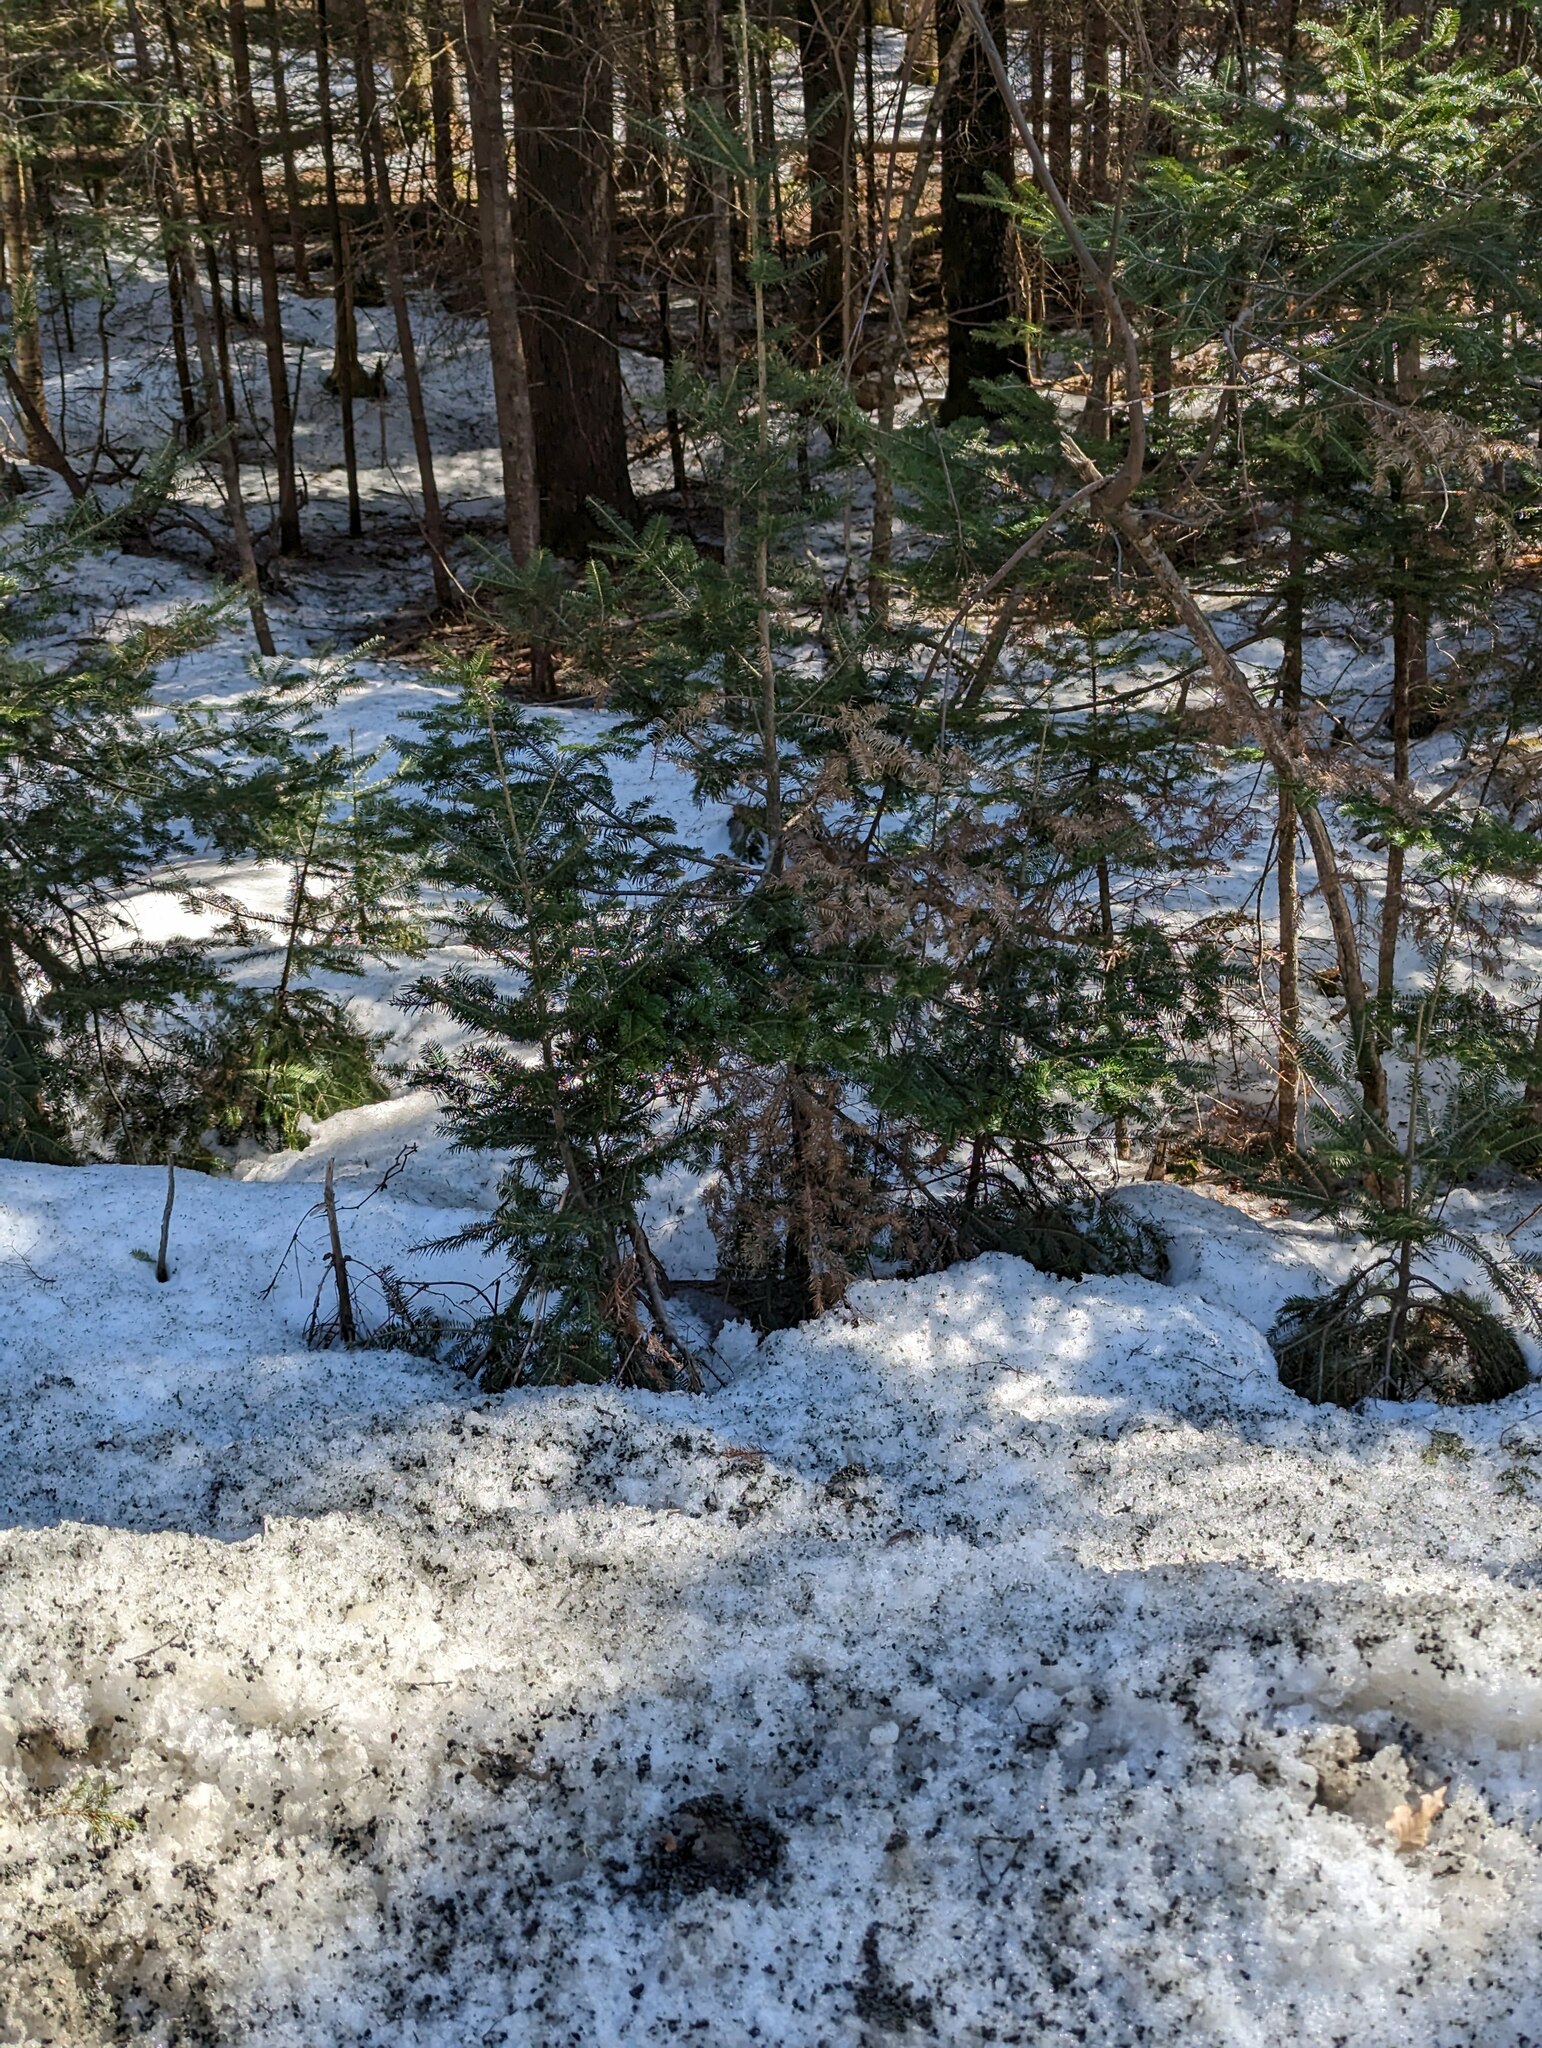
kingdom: Plantae
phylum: Tracheophyta
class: Pinopsida
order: Pinales
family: Pinaceae
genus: Abies
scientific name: Abies balsamea
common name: Balsam fir
